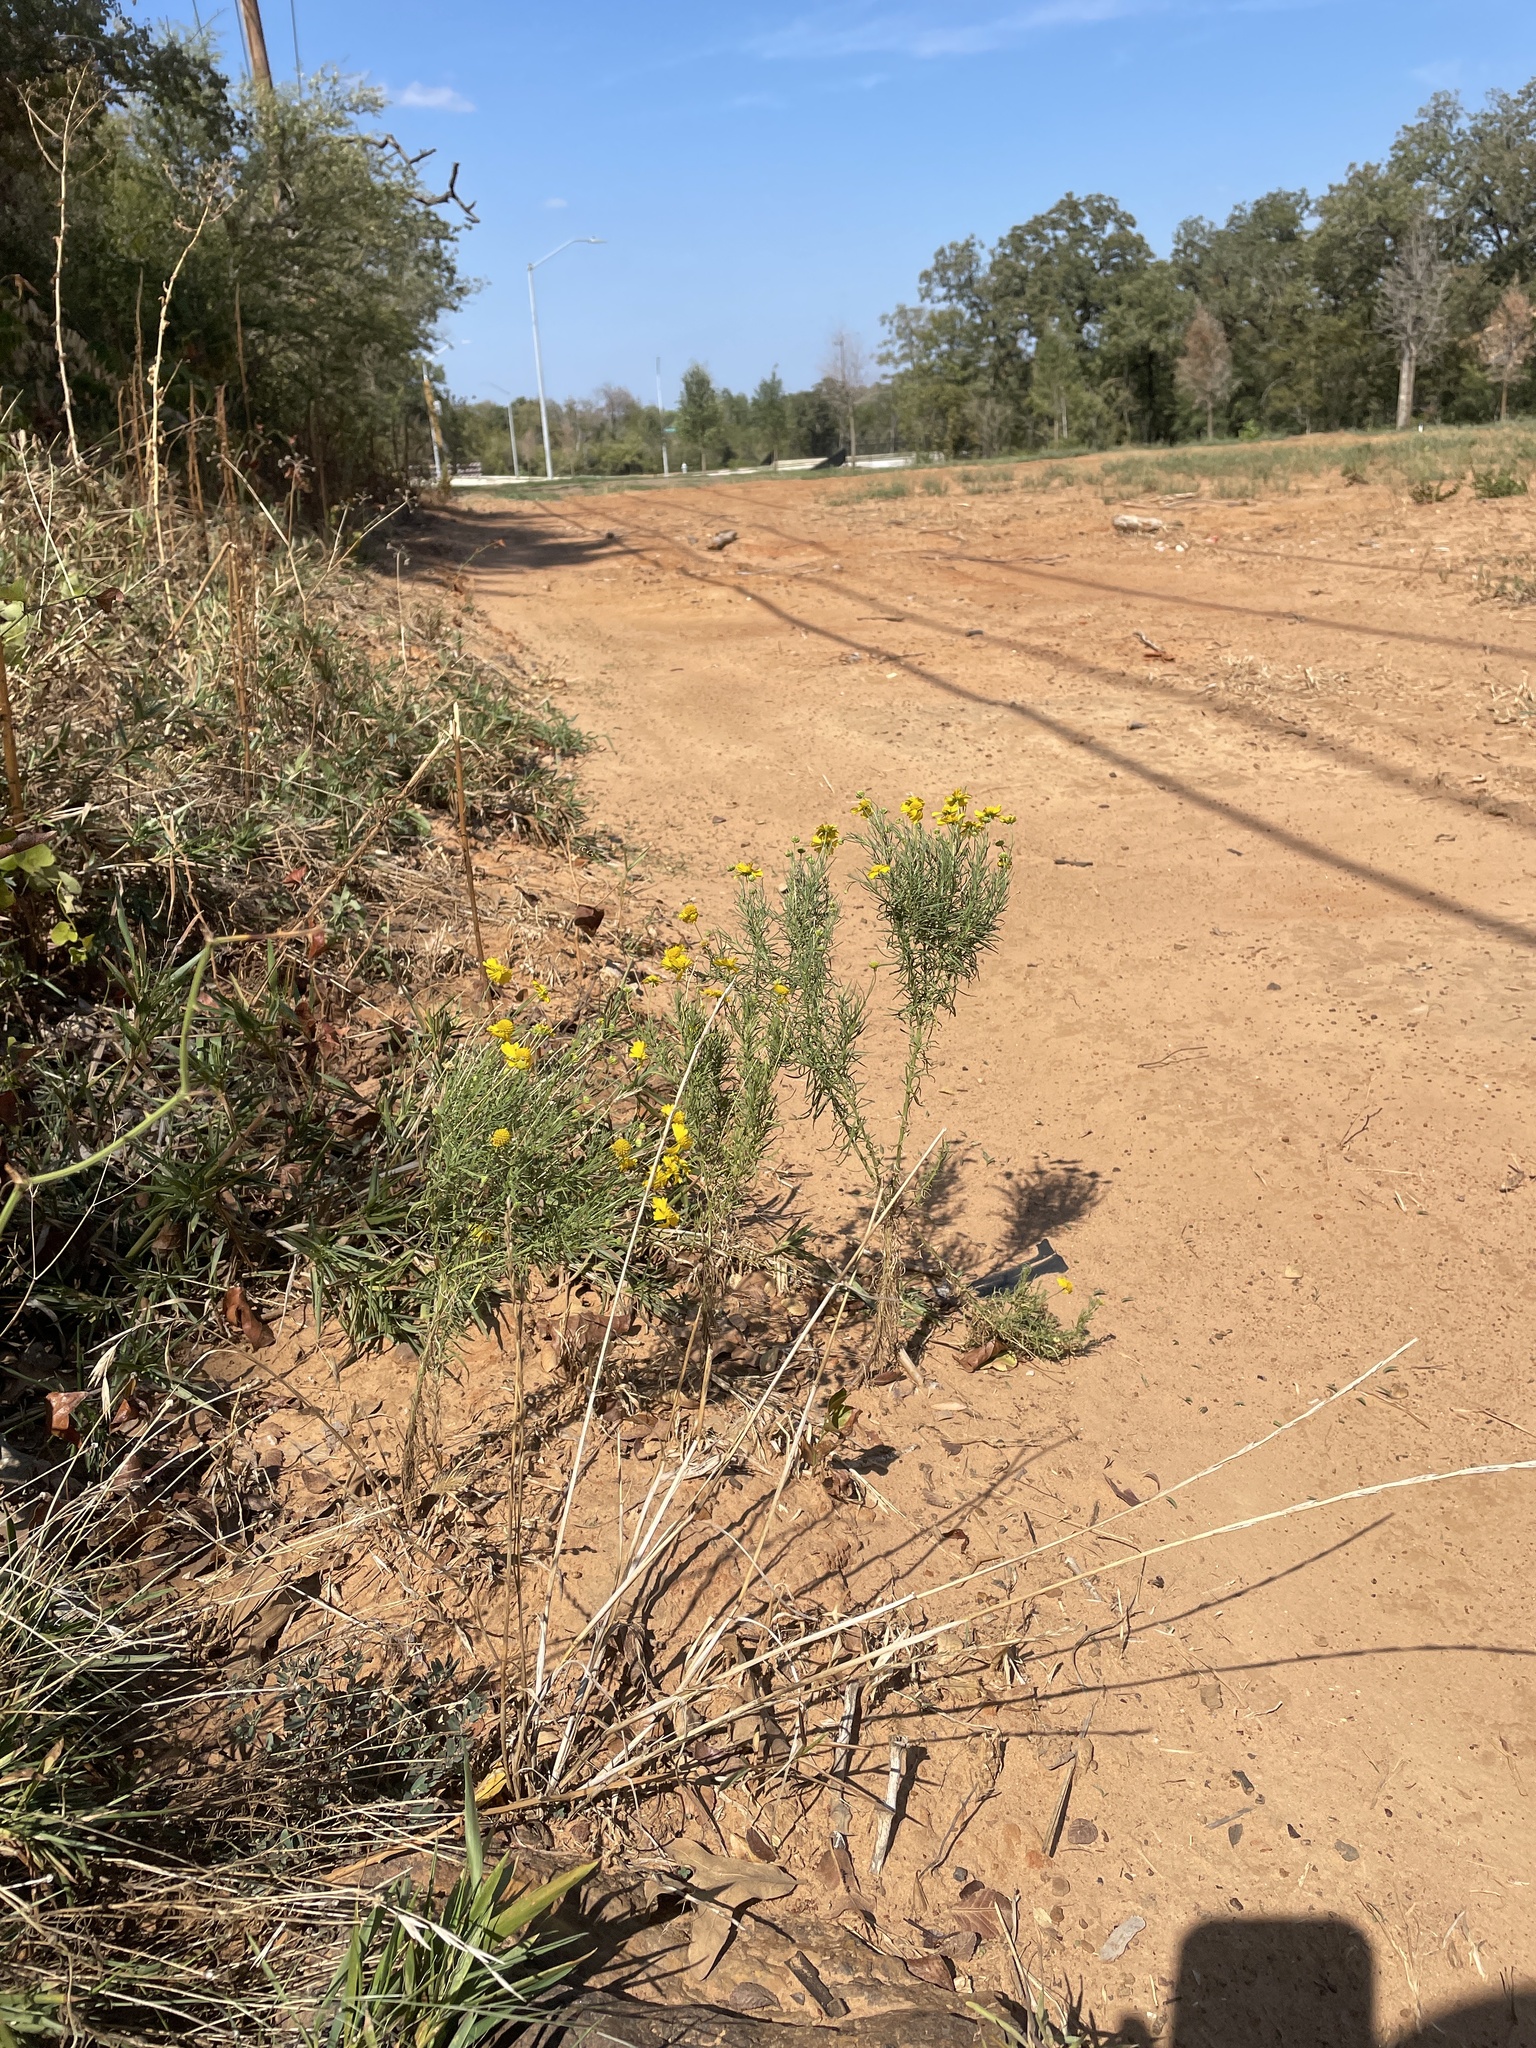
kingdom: Plantae
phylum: Tracheophyta
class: Magnoliopsida
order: Asterales
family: Asteraceae
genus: Helenium
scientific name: Helenium amarum
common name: Bitter sneezeweed
